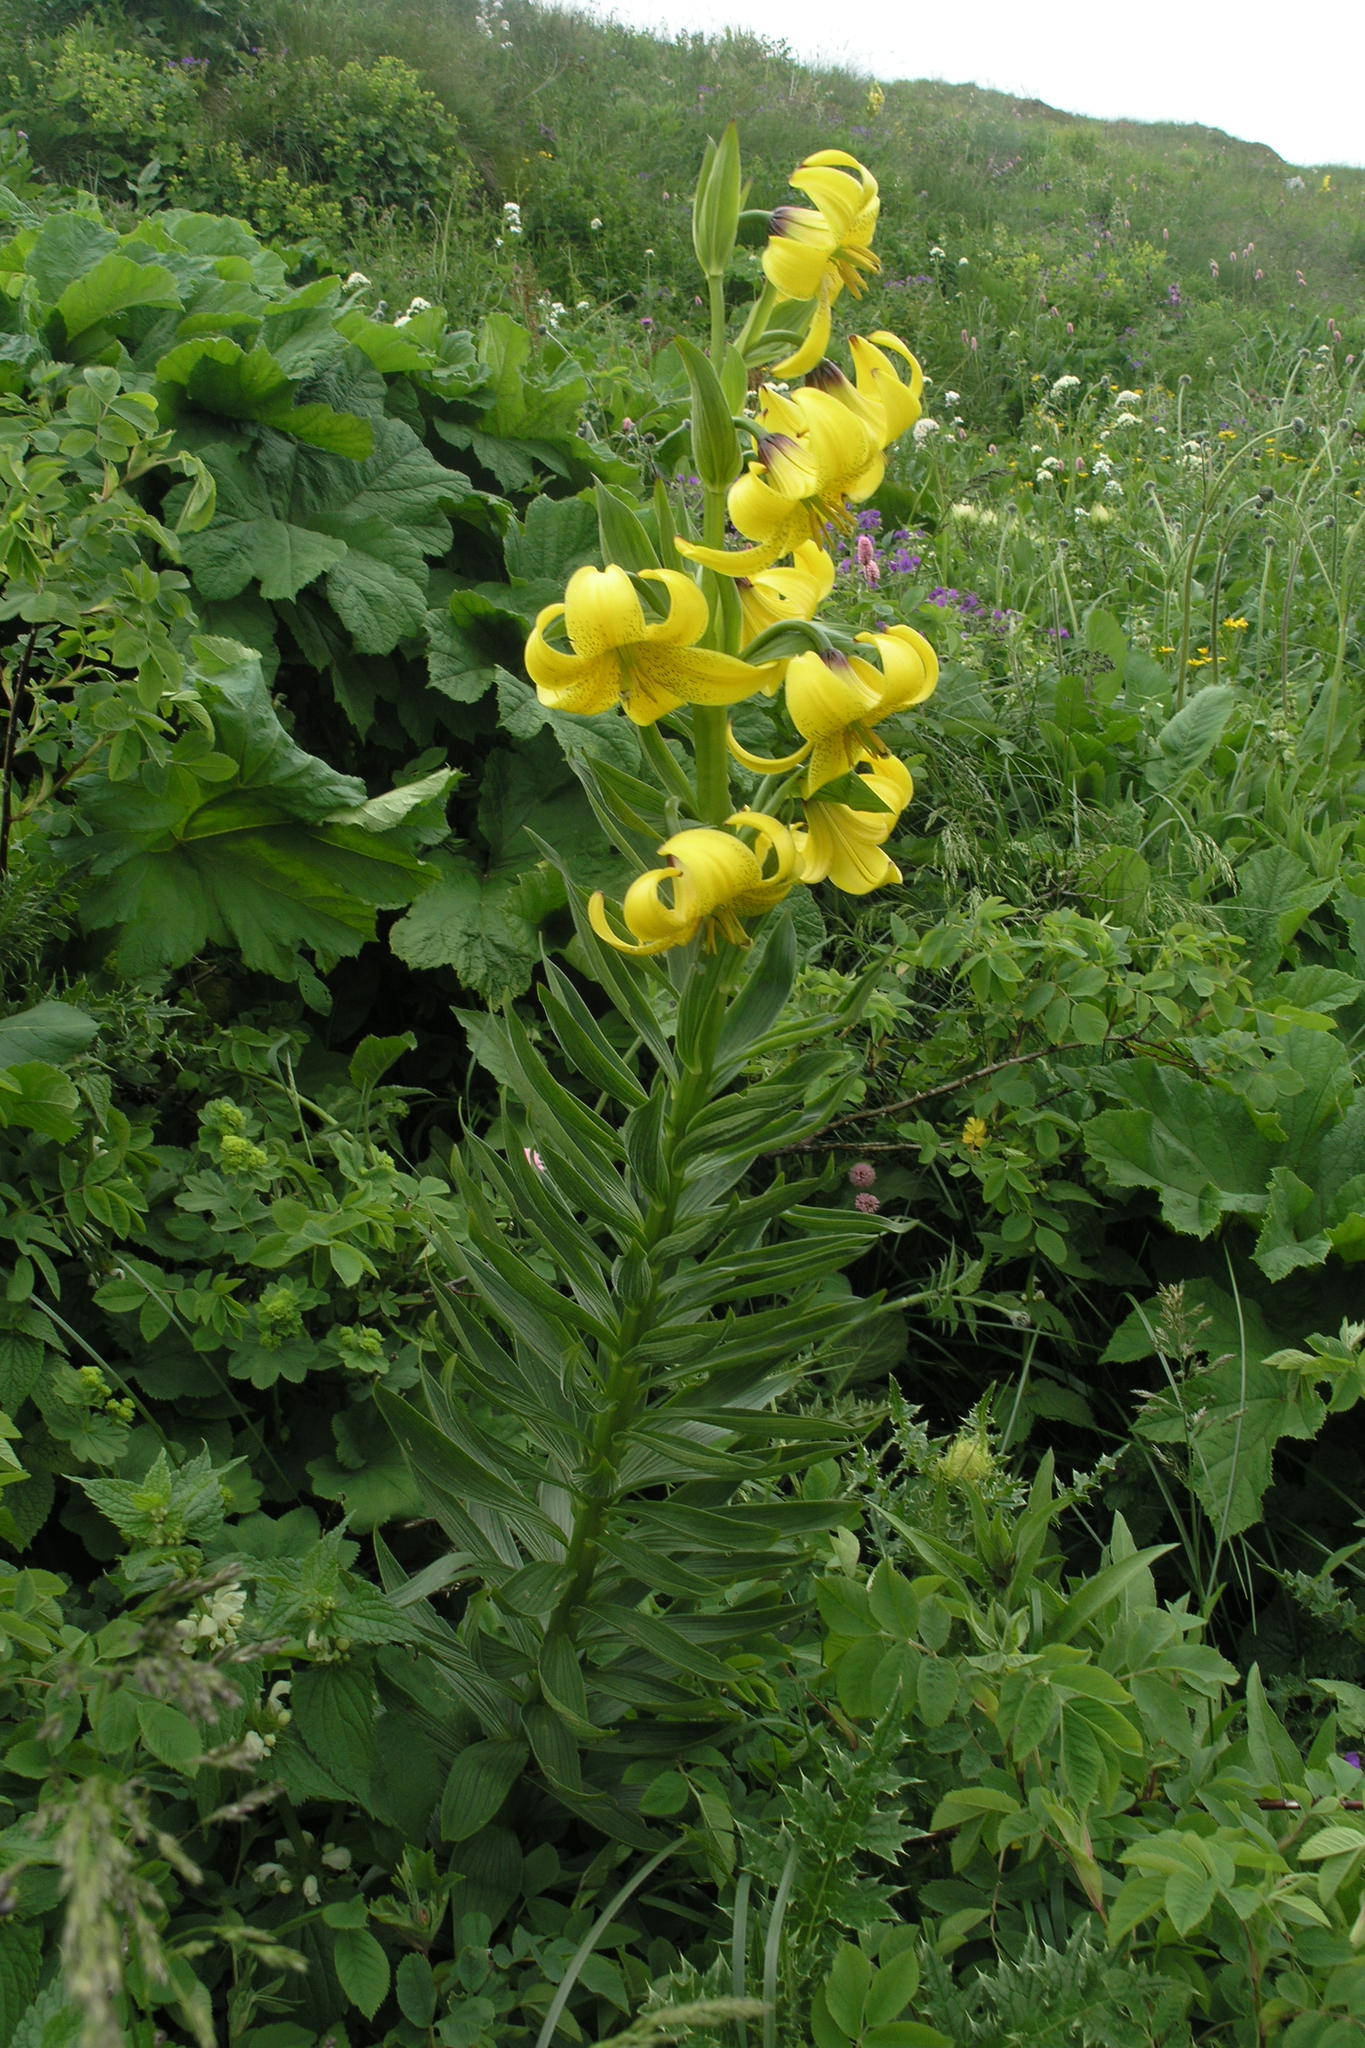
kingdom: Plantae
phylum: Tracheophyta
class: Liliopsida
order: Liliales
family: Liliaceae
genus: Lilium
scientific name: Lilium kesselringianum
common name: Kesselring lily
